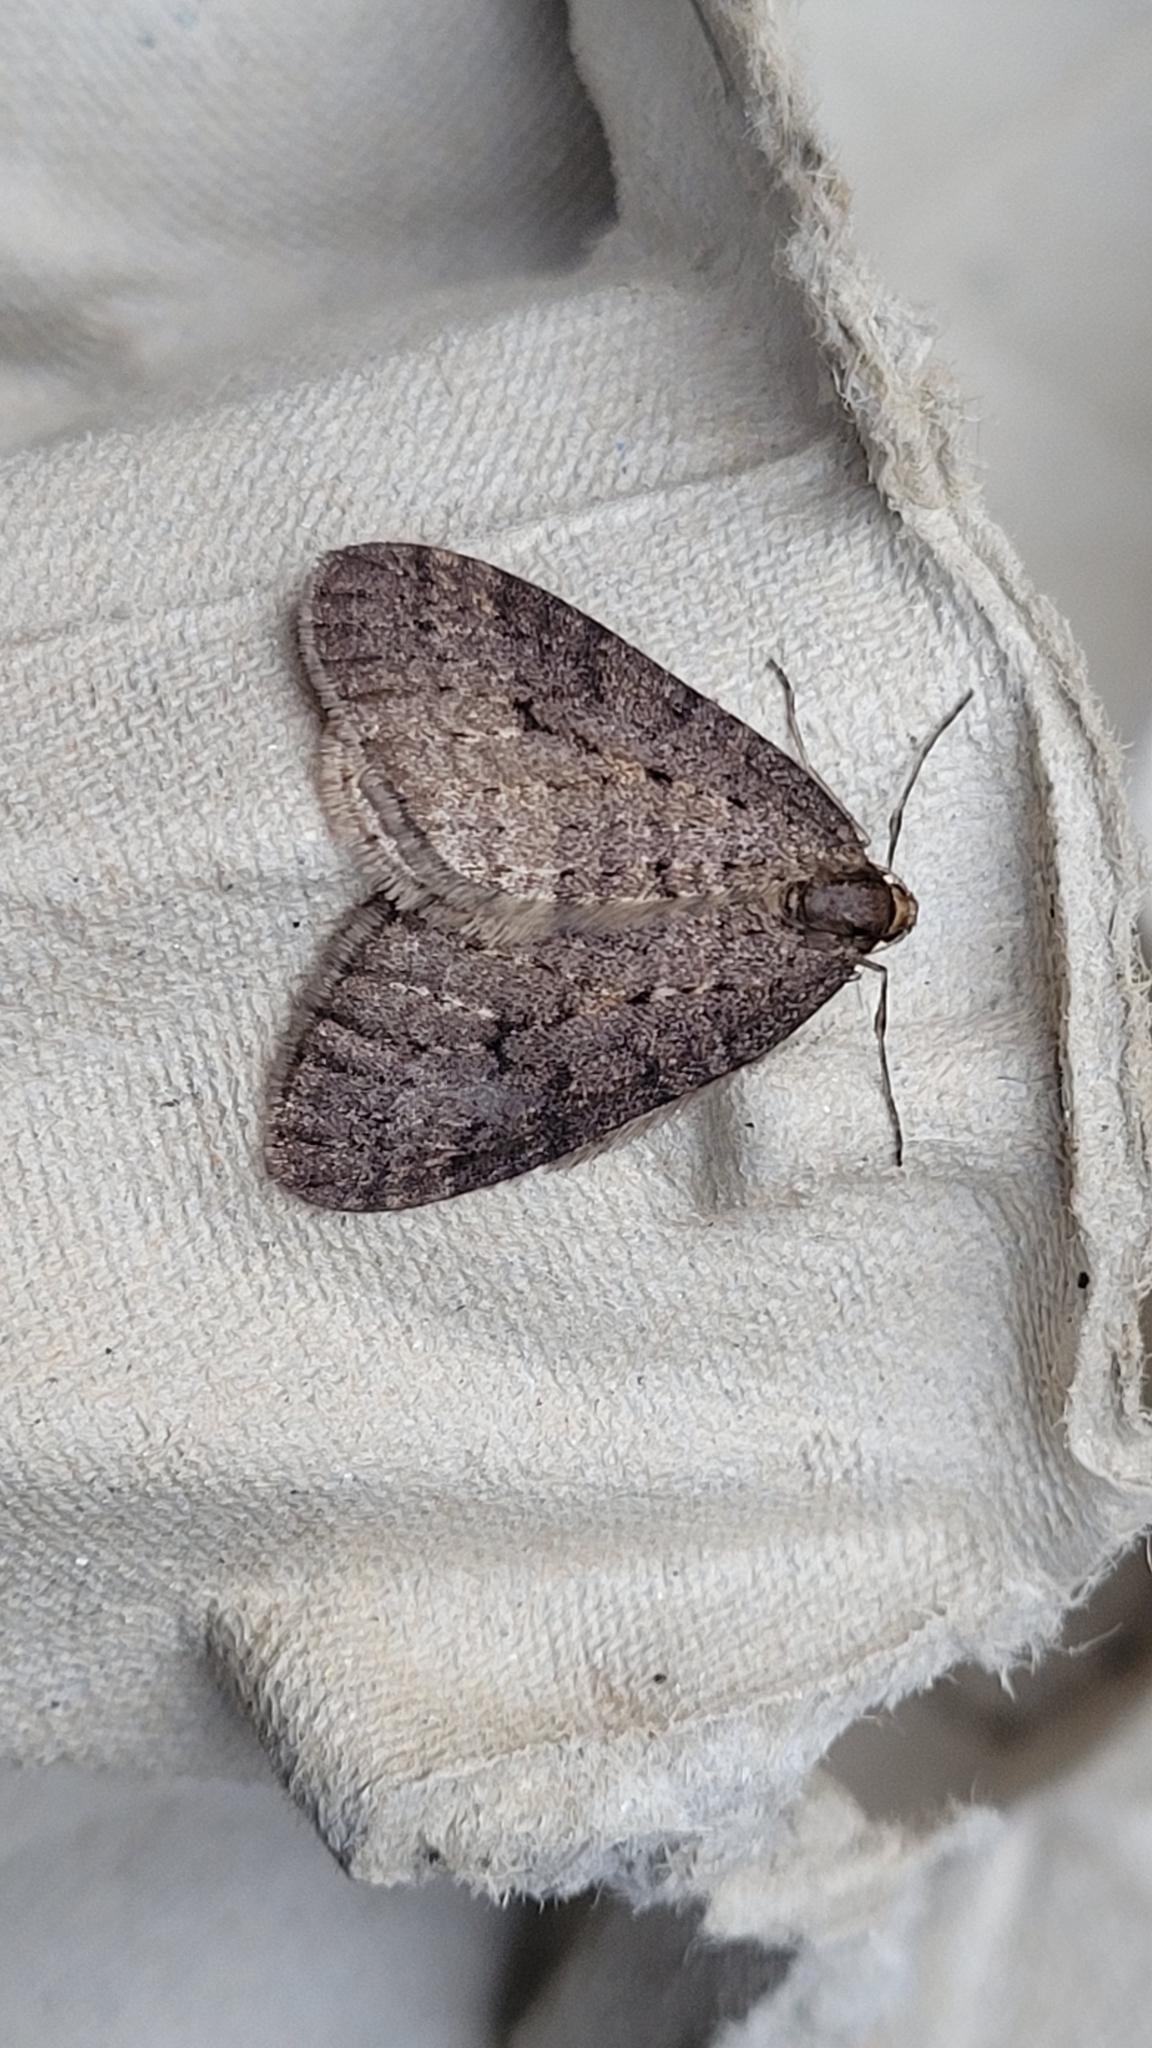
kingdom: Animalia
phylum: Arthropoda
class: Insecta
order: Lepidoptera
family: Geometridae
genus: Operophtera
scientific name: Operophtera brumata
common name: Winter moth
